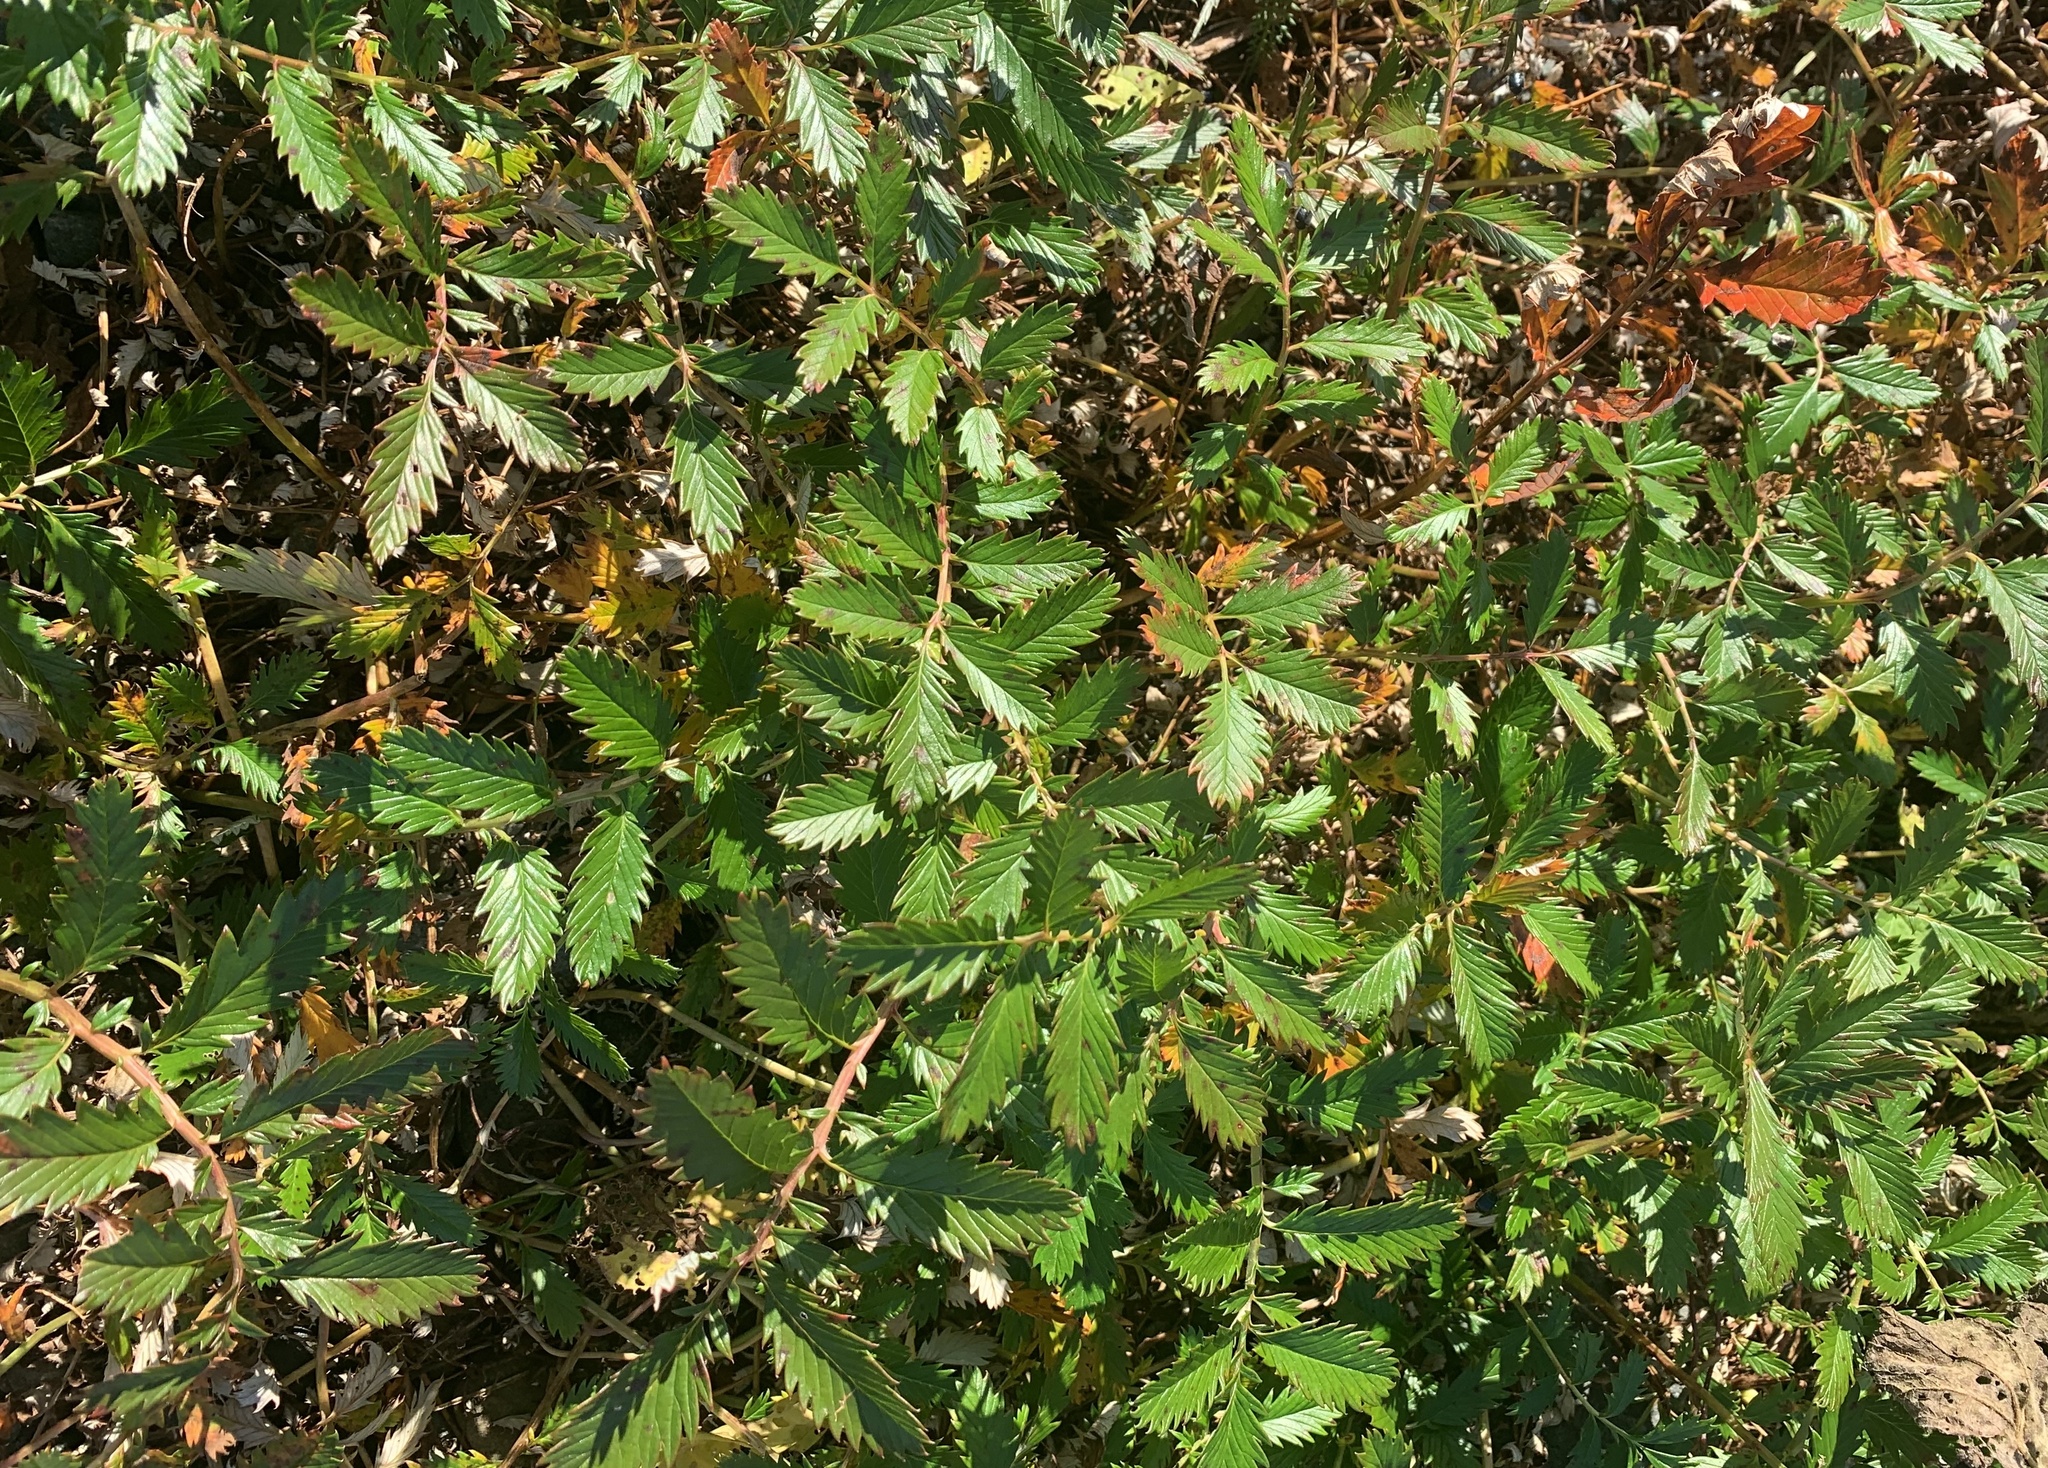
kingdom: Plantae
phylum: Tracheophyta
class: Magnoliopsida
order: Rosales
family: Rosaceae
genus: Argentina
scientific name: Argentina anserina
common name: Common silverweed
